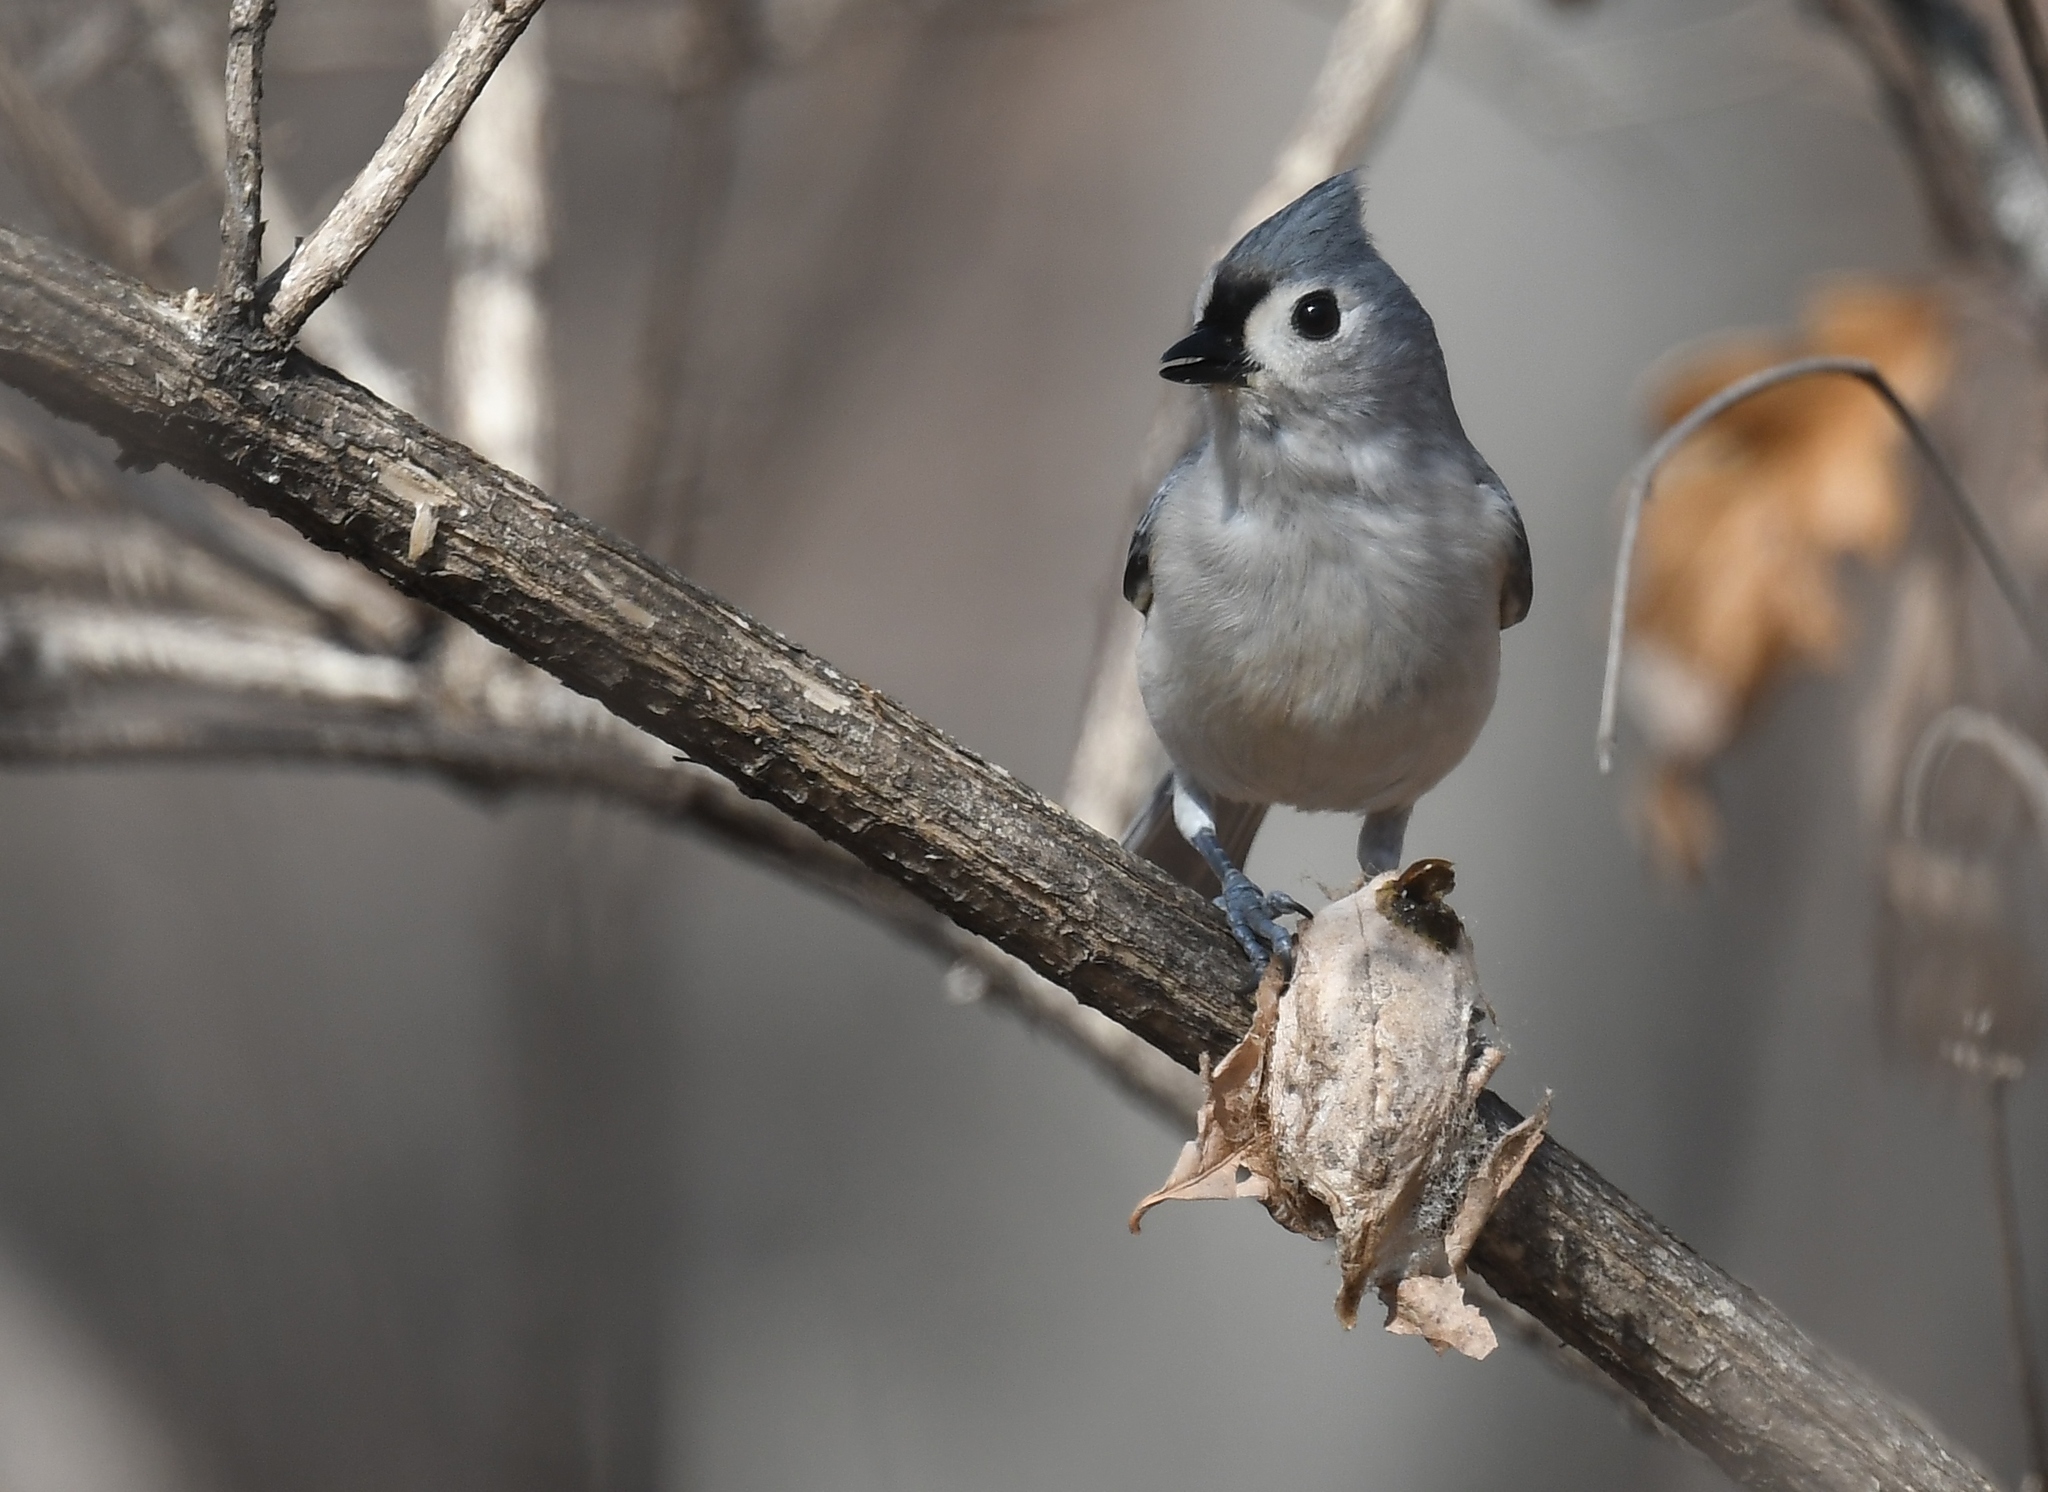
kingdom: Animalia
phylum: Chordata
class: Aves
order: Passeriformes
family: Paridae
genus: Baeolophus
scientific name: Baeolophus bicolor
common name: Tufted titmouse
